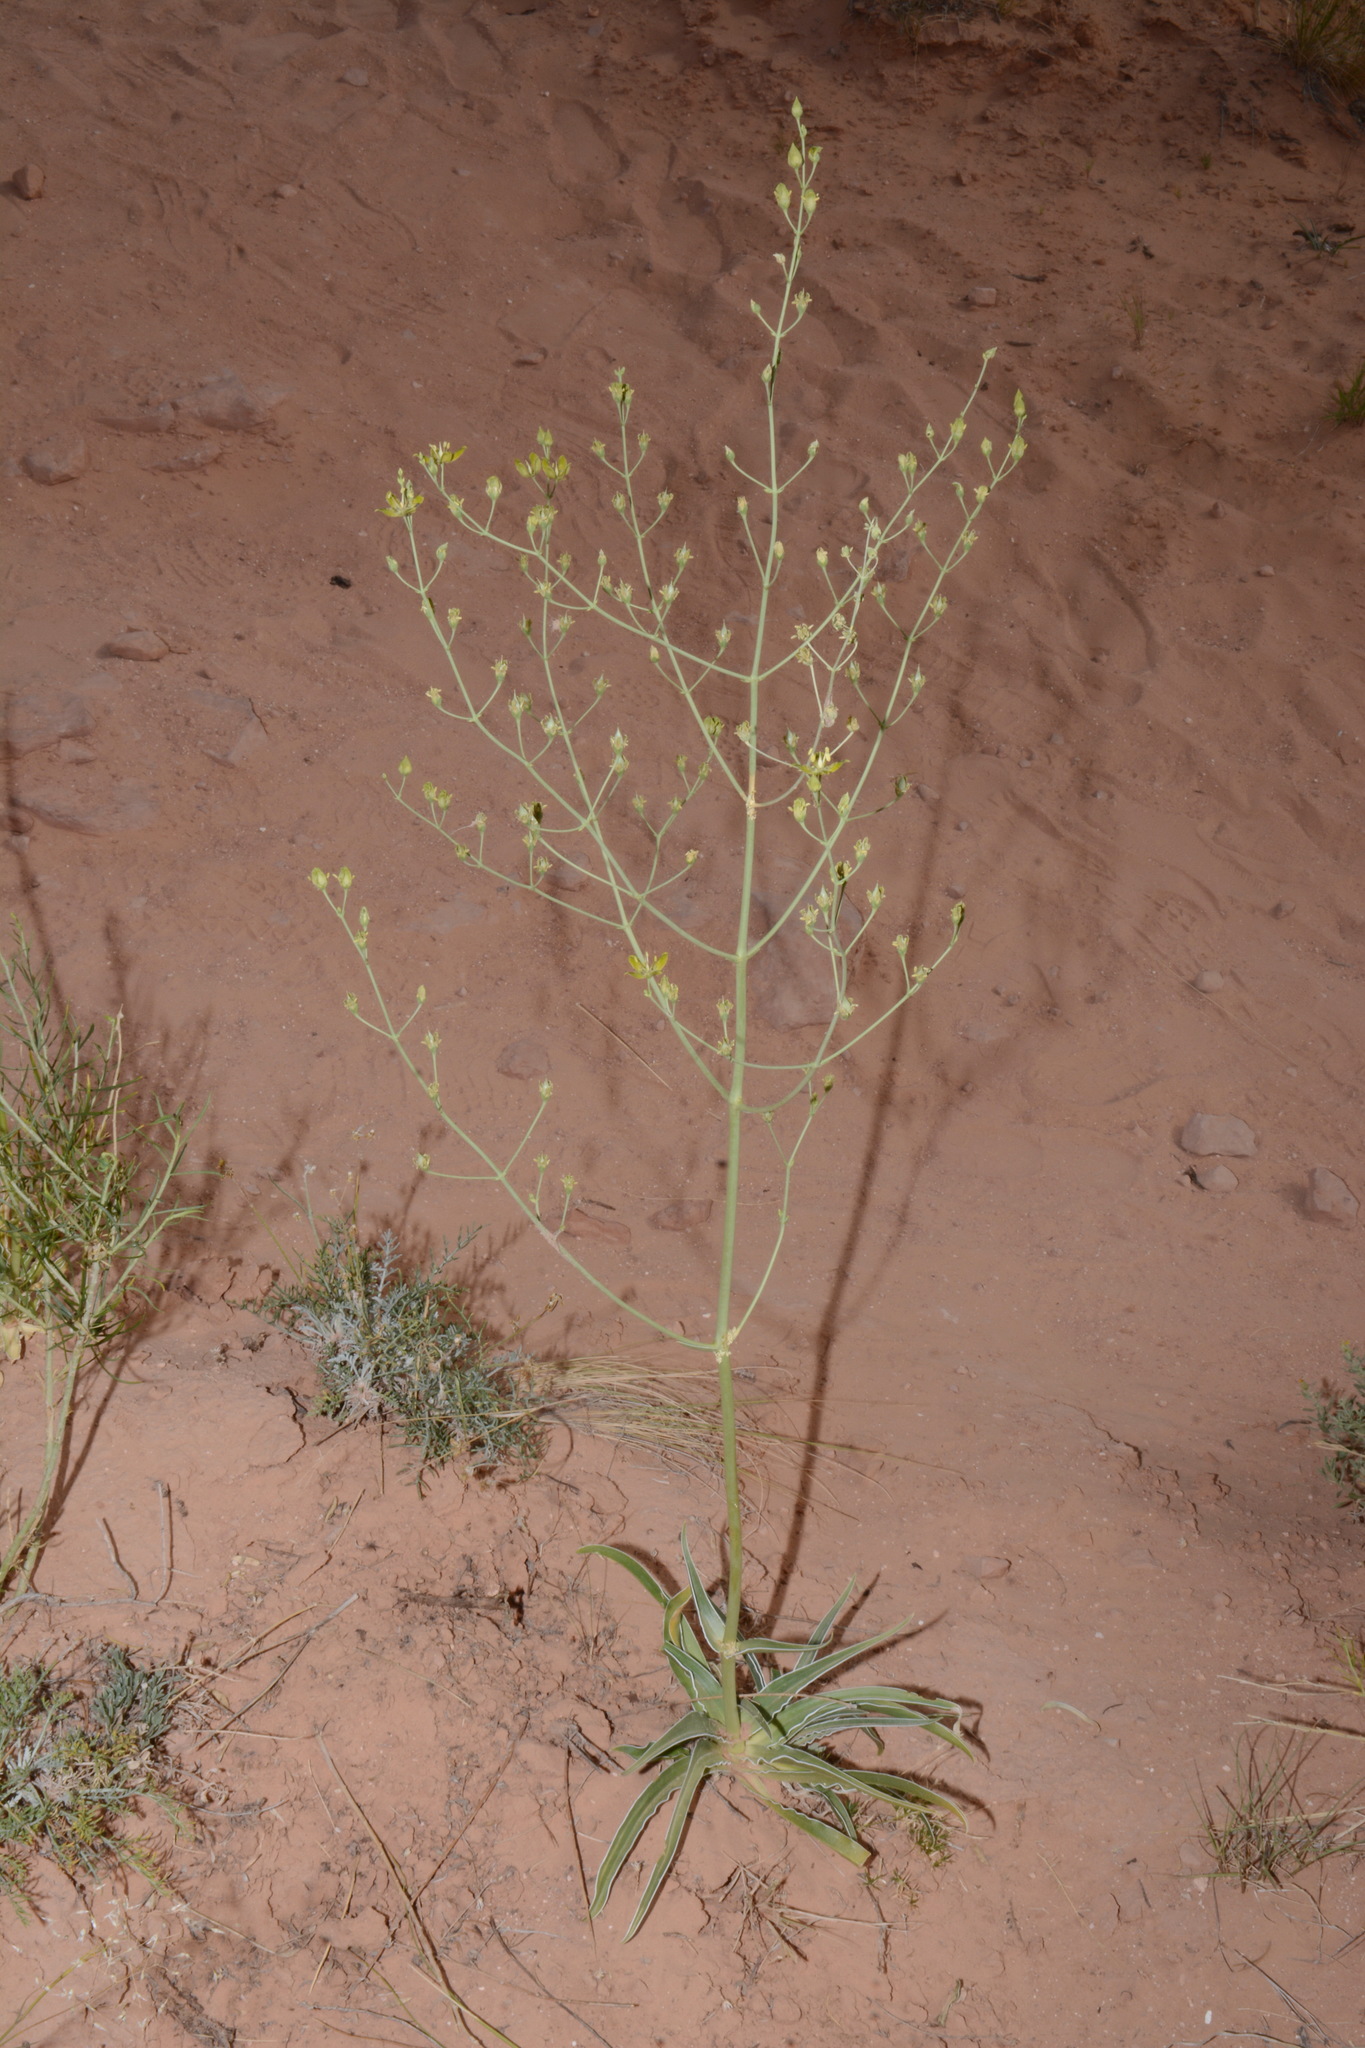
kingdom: Plantae
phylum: Tracheophyta
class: Magnoliopsida
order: Gentianales
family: Gentianaceae
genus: Frasera
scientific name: Frasera paniculata
